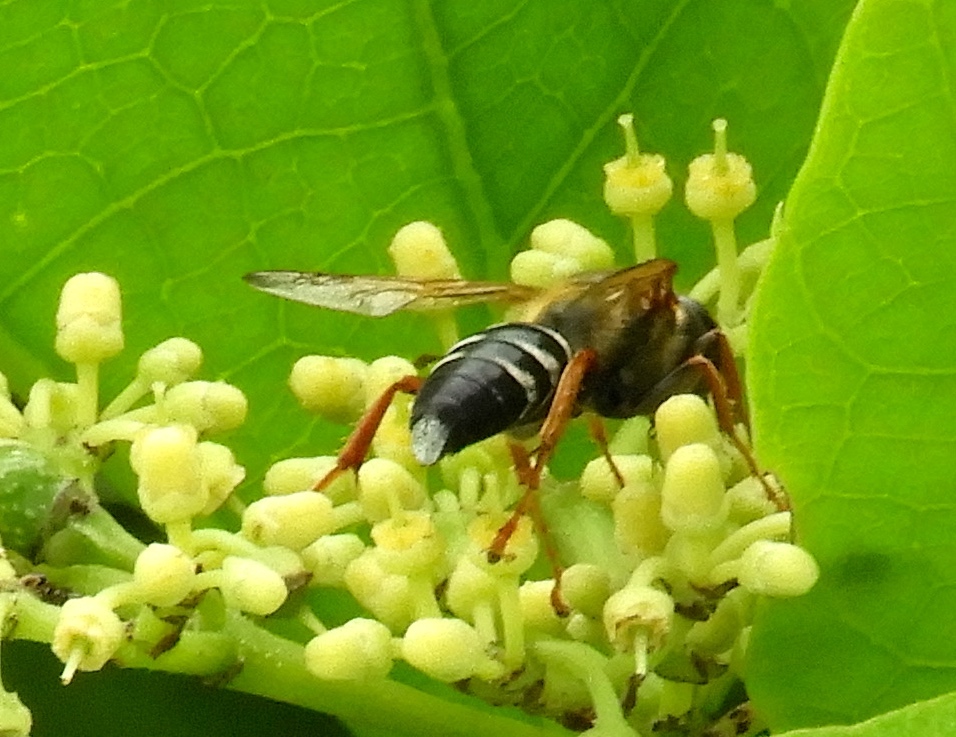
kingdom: Animalia
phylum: Arthropoda
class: Insecta
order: Hymenoptera
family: Crabronidae
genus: Tachytes
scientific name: Tachytes
